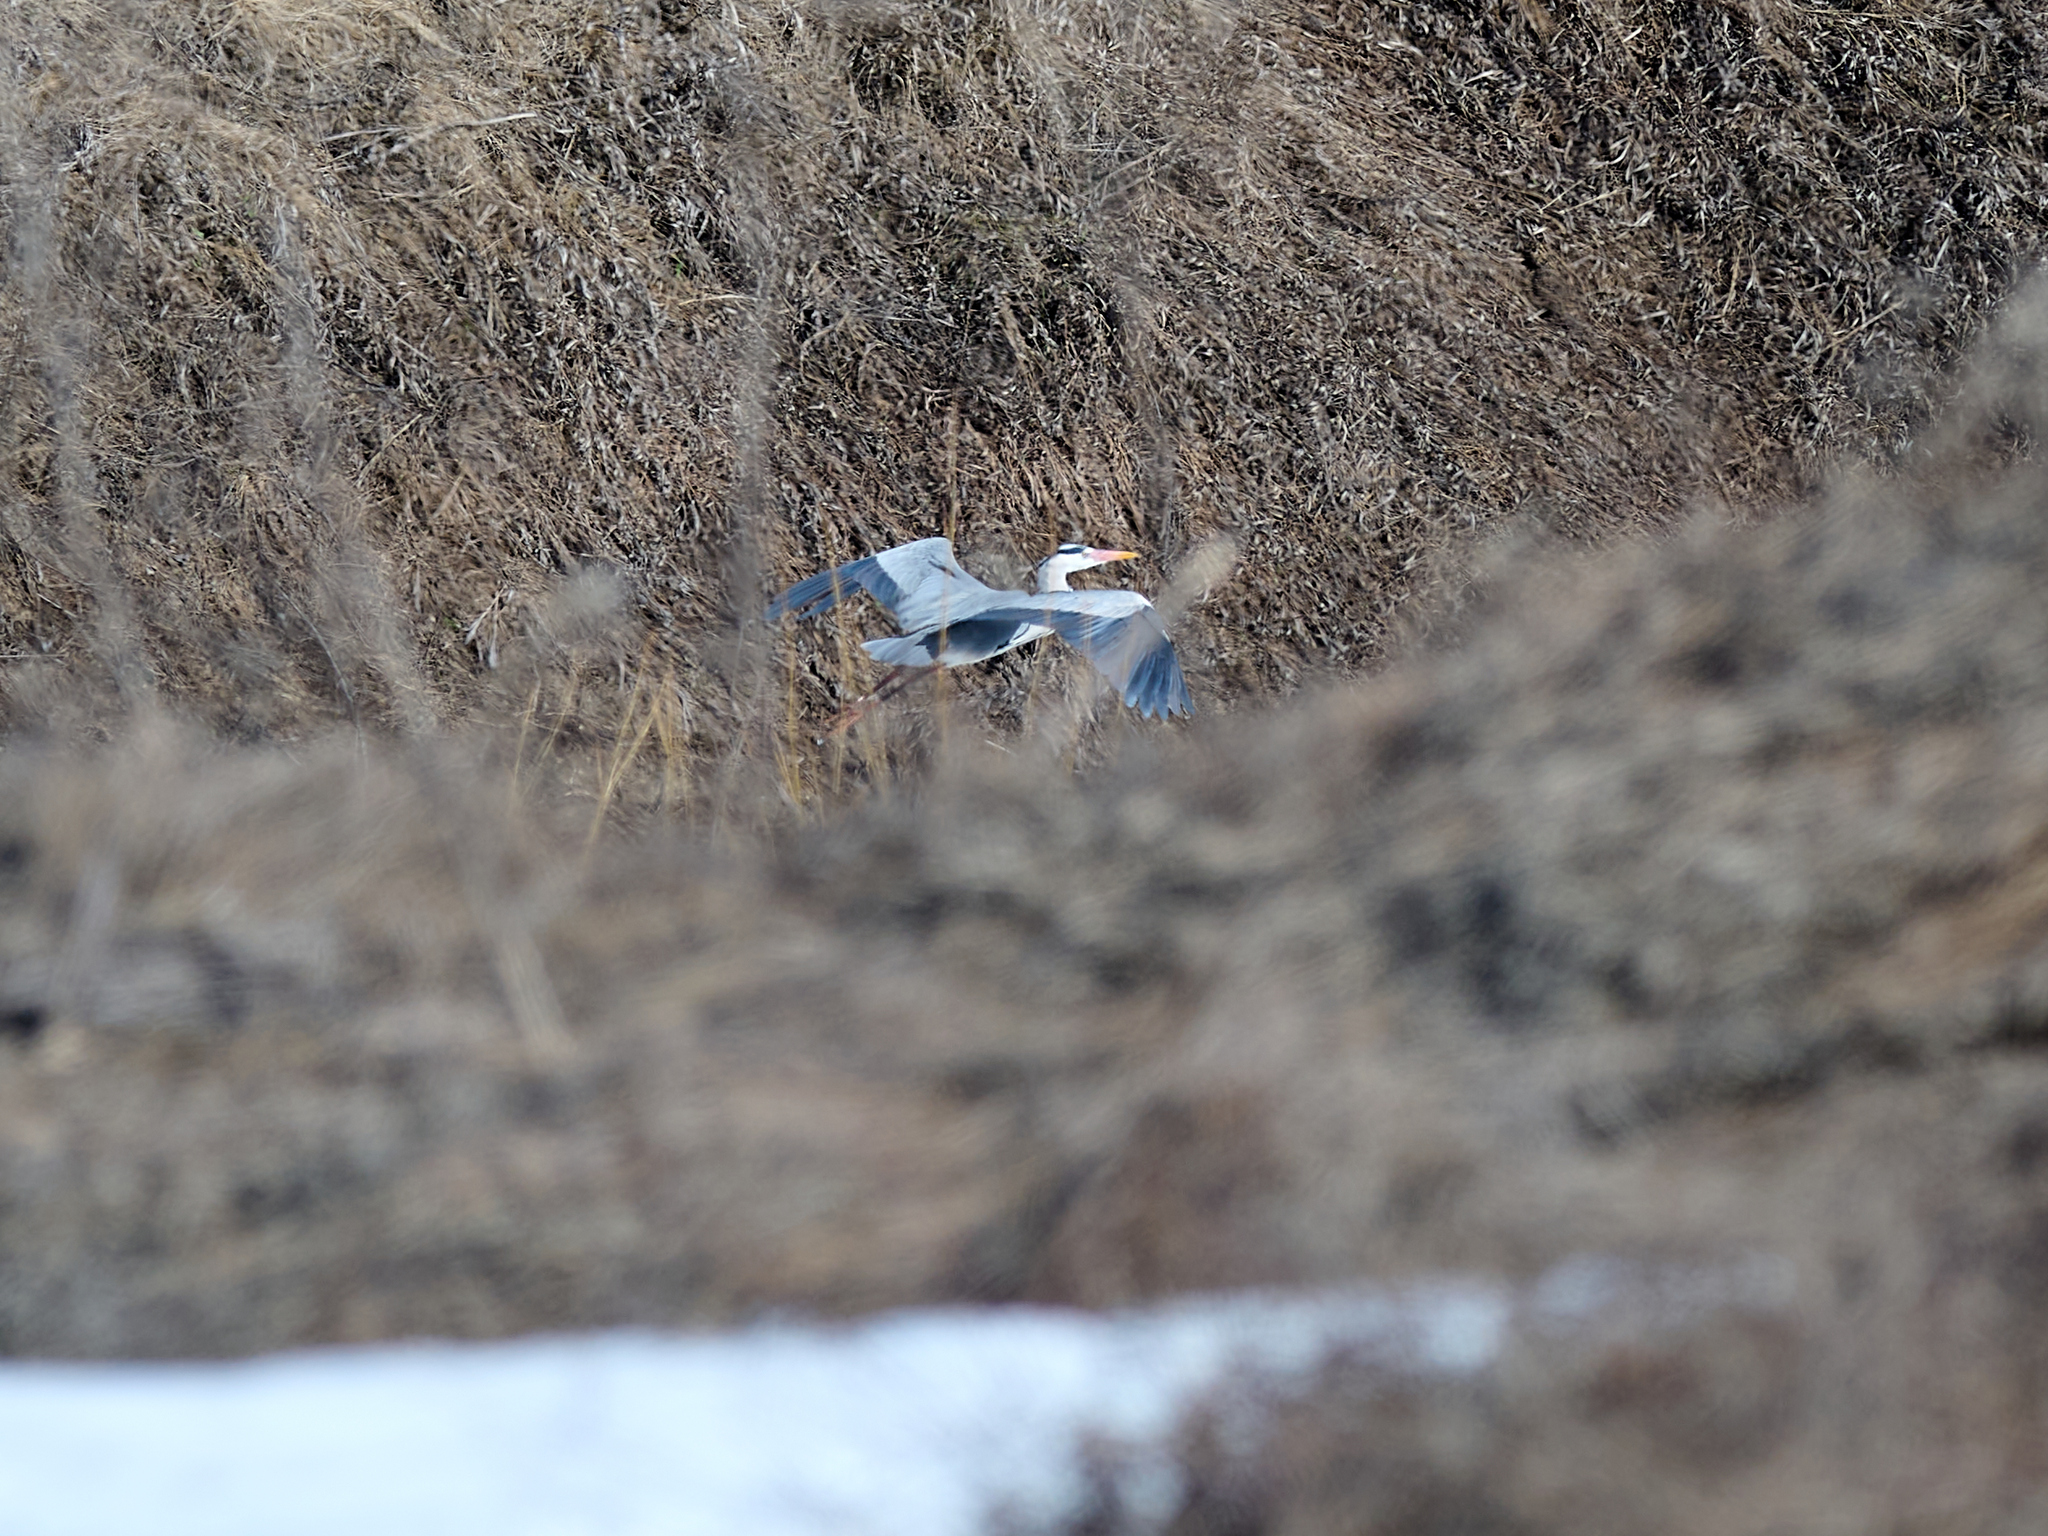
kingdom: Animalia
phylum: Chordata
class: Aves
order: Pelecaniformes
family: Ardeidae
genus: Ardea
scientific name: Ardea cinerea
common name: Grey heron
